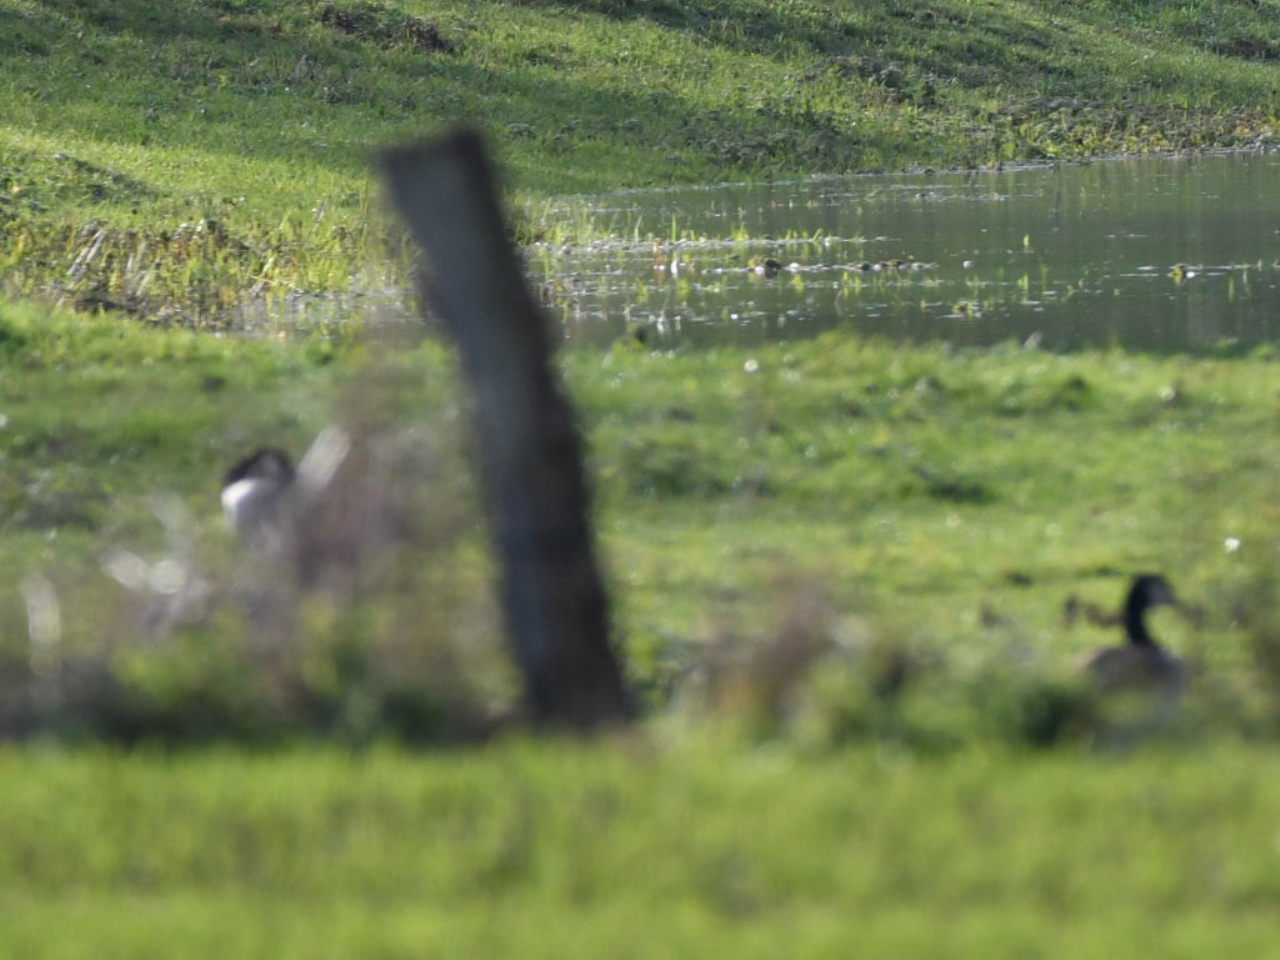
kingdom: Animalia
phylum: Chordata
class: Aves
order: Anseriformes
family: Anatidae
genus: Branta
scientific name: Branta canadensis
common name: Canada goose
